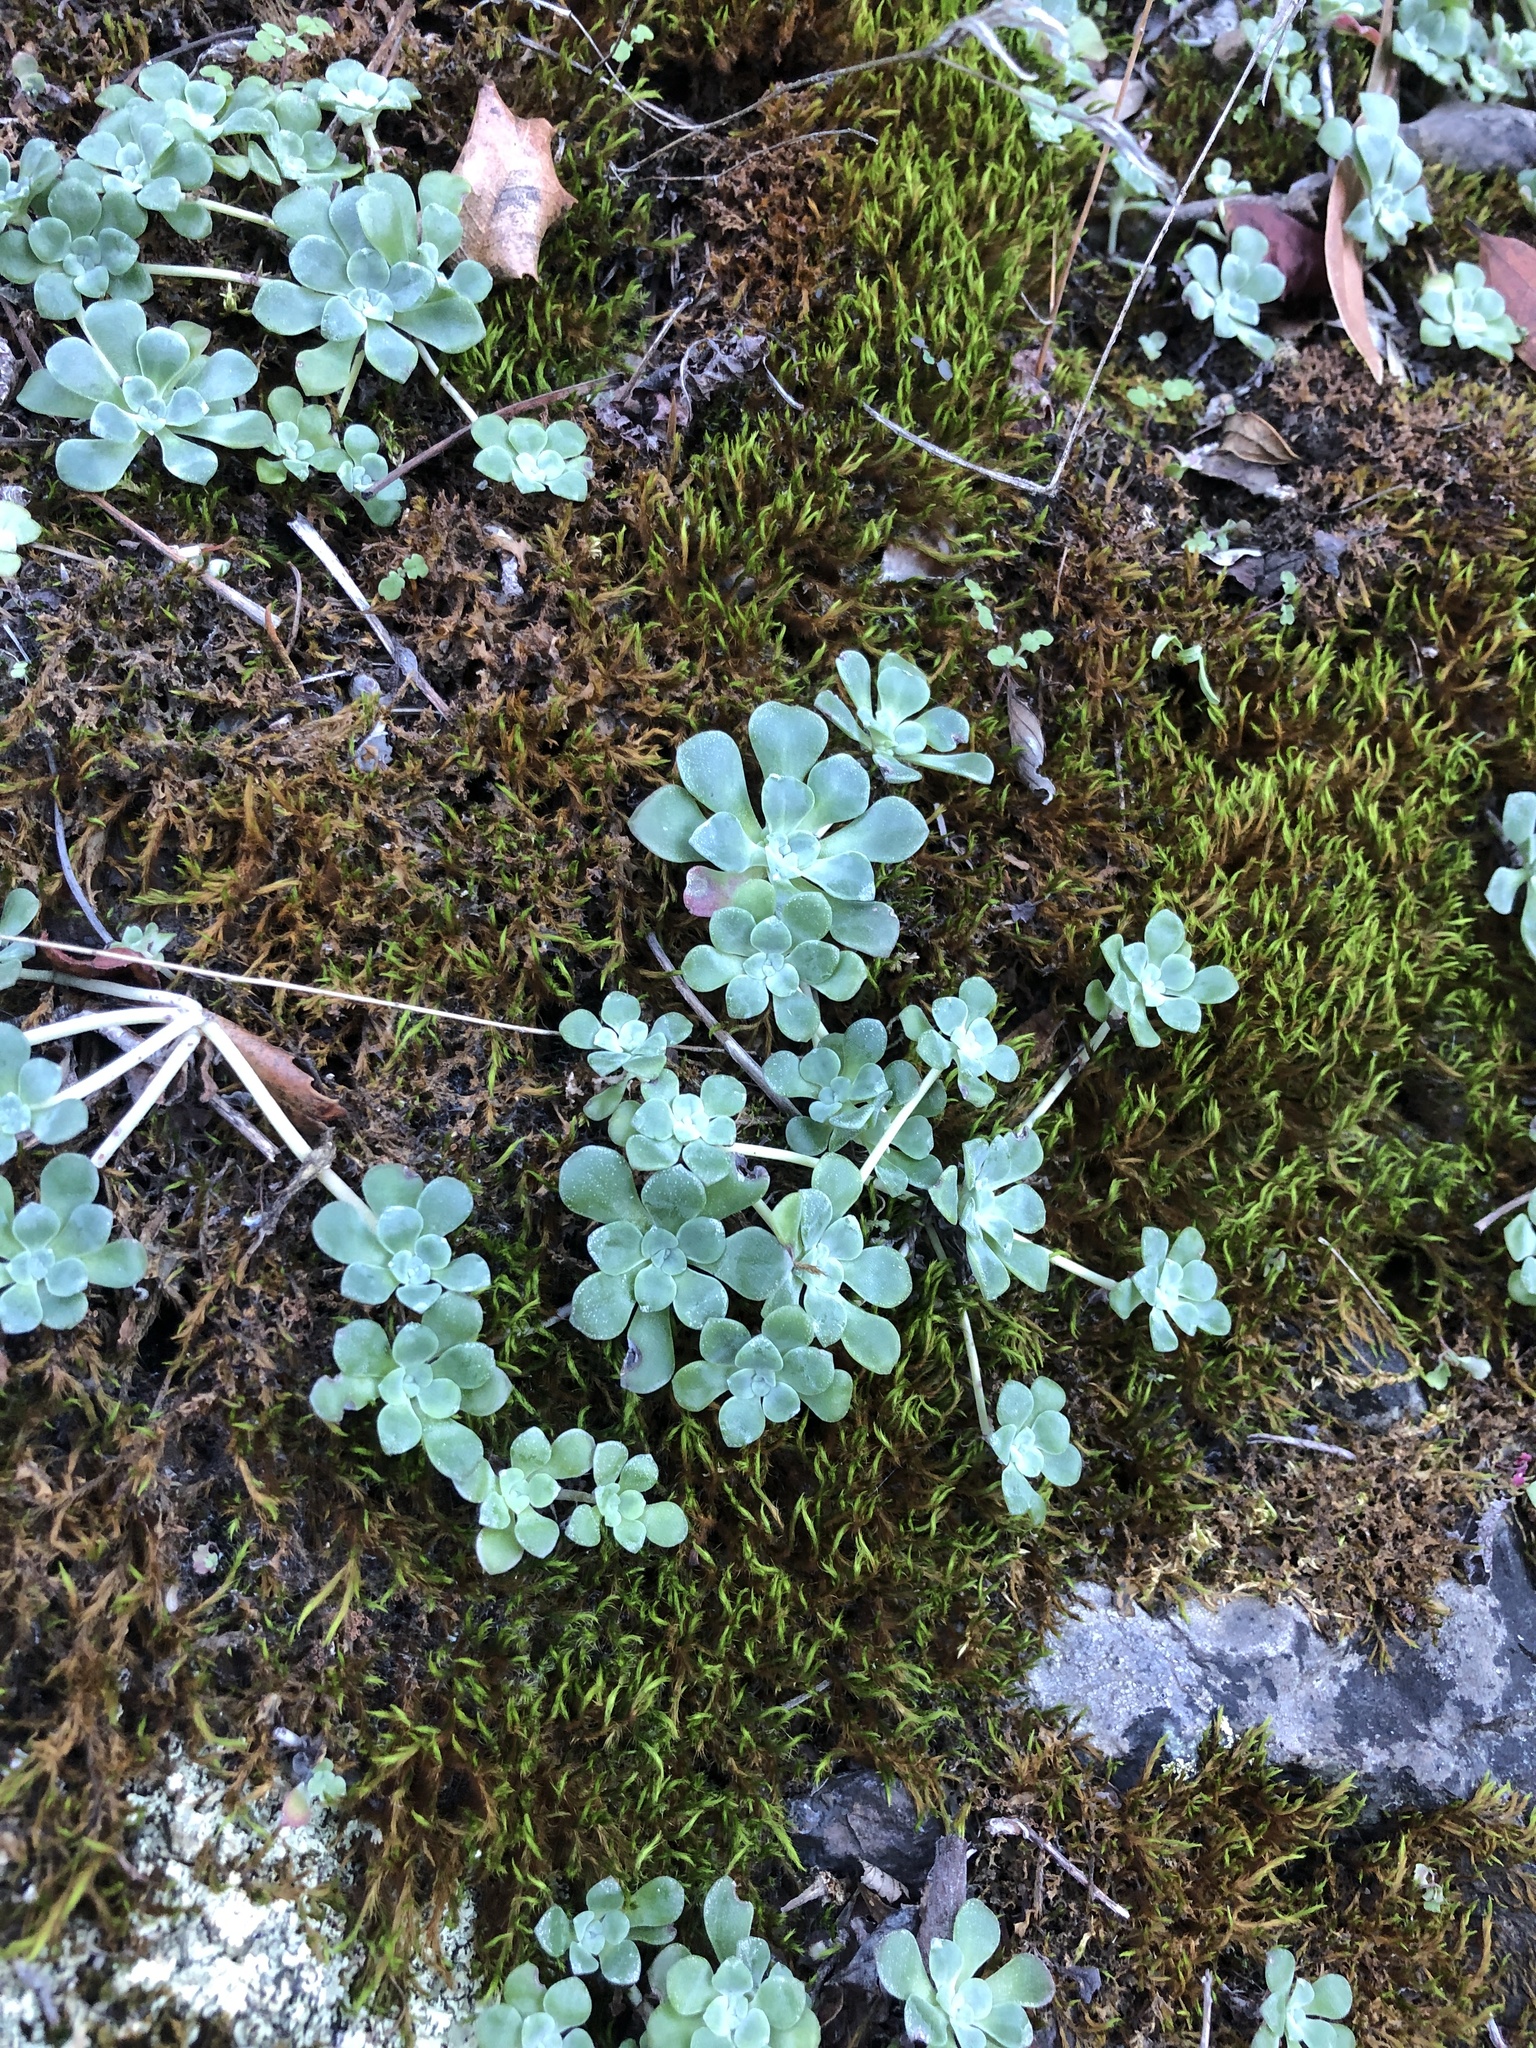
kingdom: Plantae
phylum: Tracheophyta
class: Magnoliopsida
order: Saxifragales
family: Crassulaceae
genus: Sedum
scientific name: Sedum spathulifolium
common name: Colorado stonecrop
